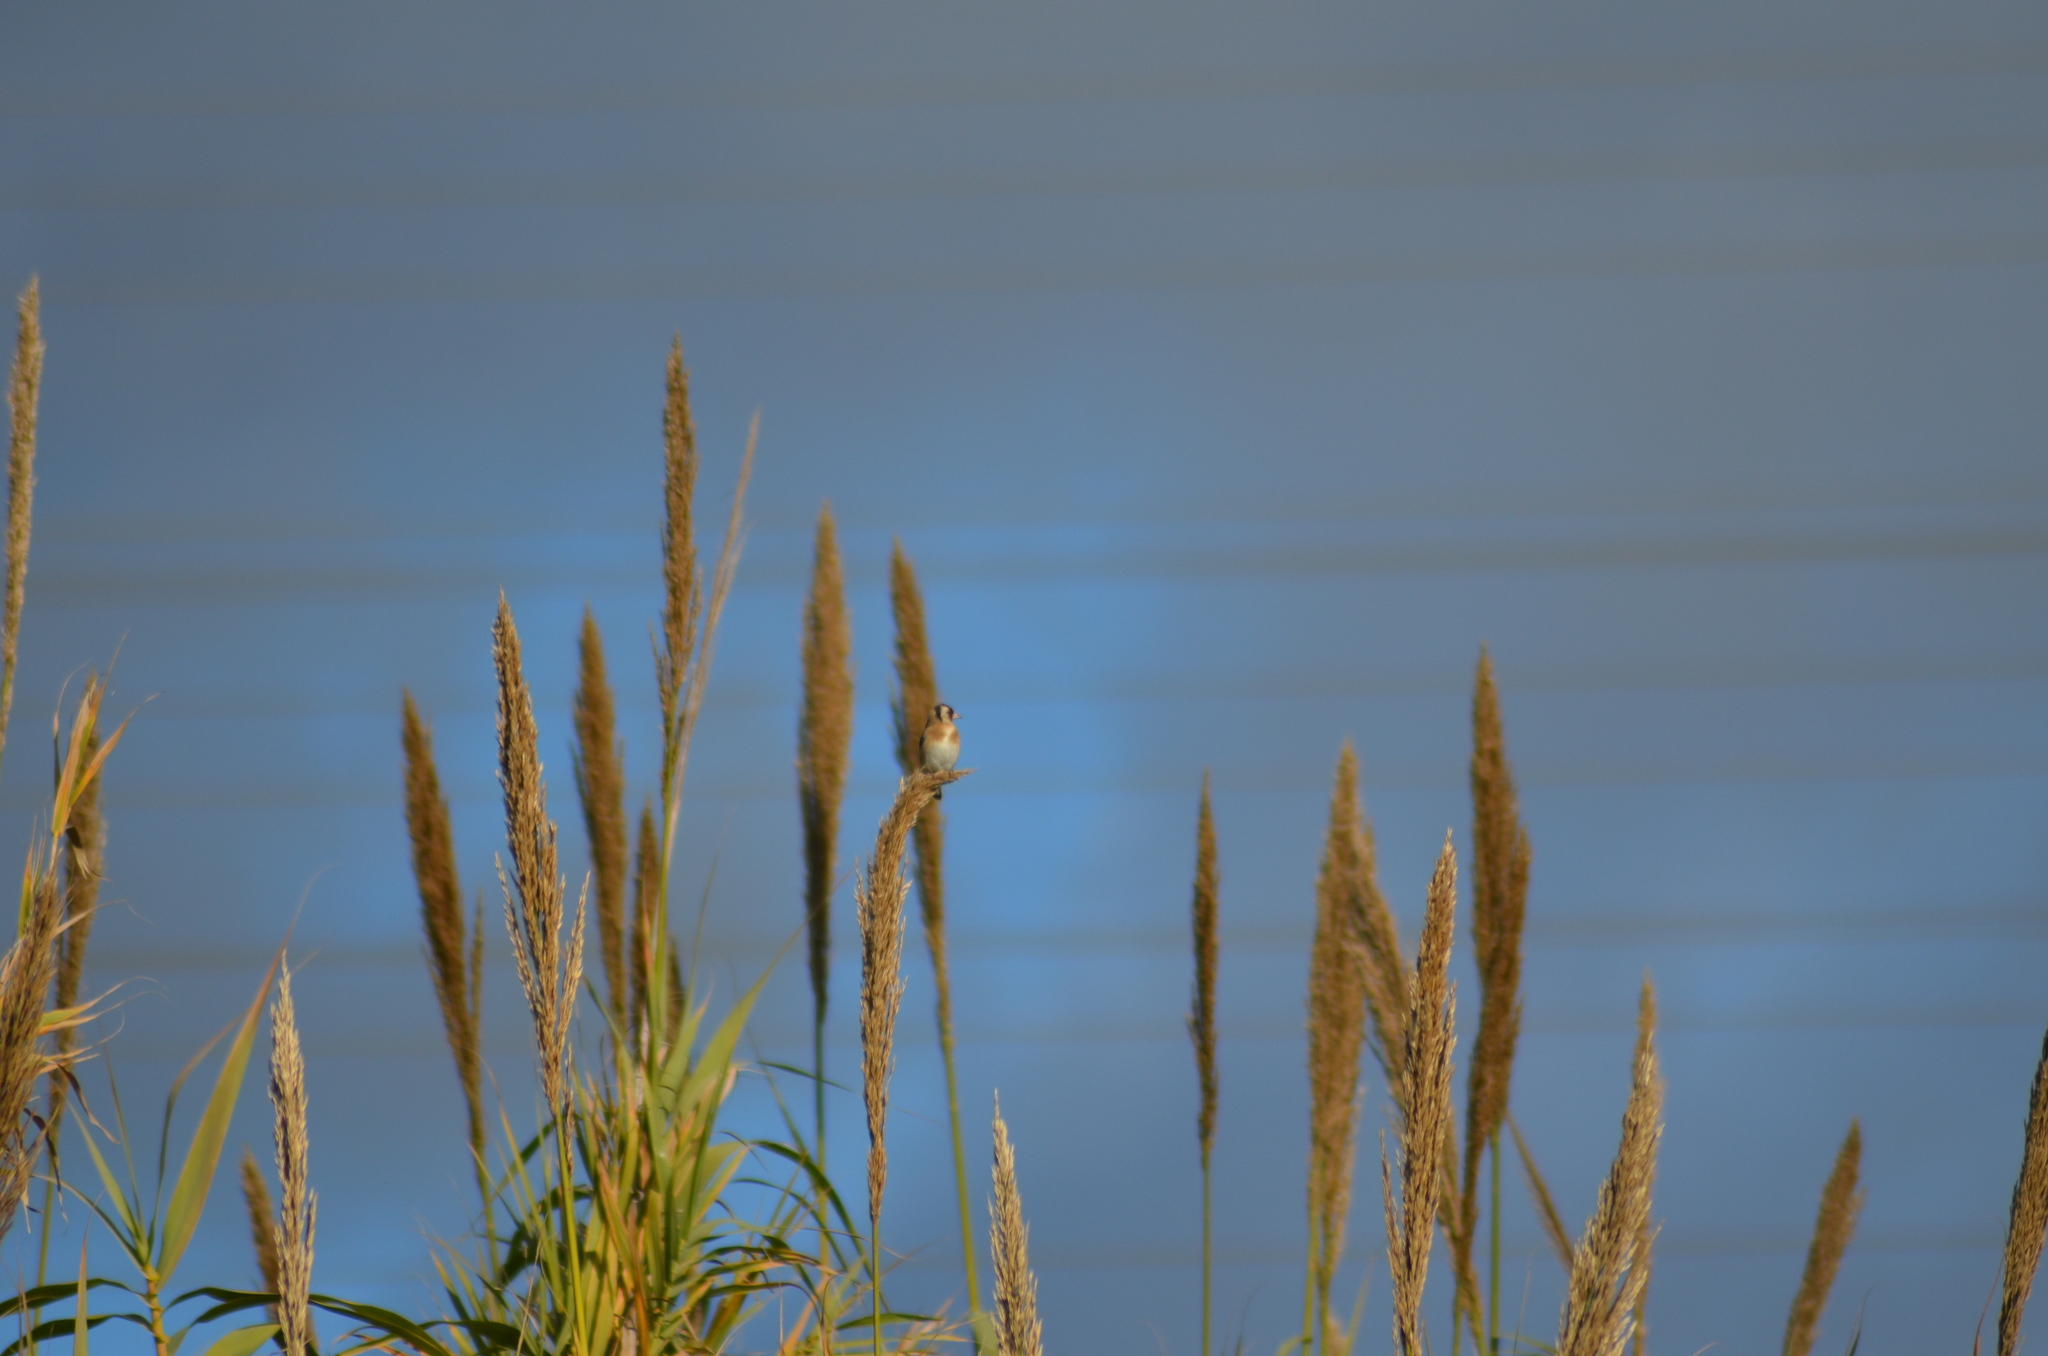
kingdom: Animalia
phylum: Chordata
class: Aves
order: Passeriformes
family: Fringillidae
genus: Carduelis
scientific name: Carduelis carduelis
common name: European goldfinch
